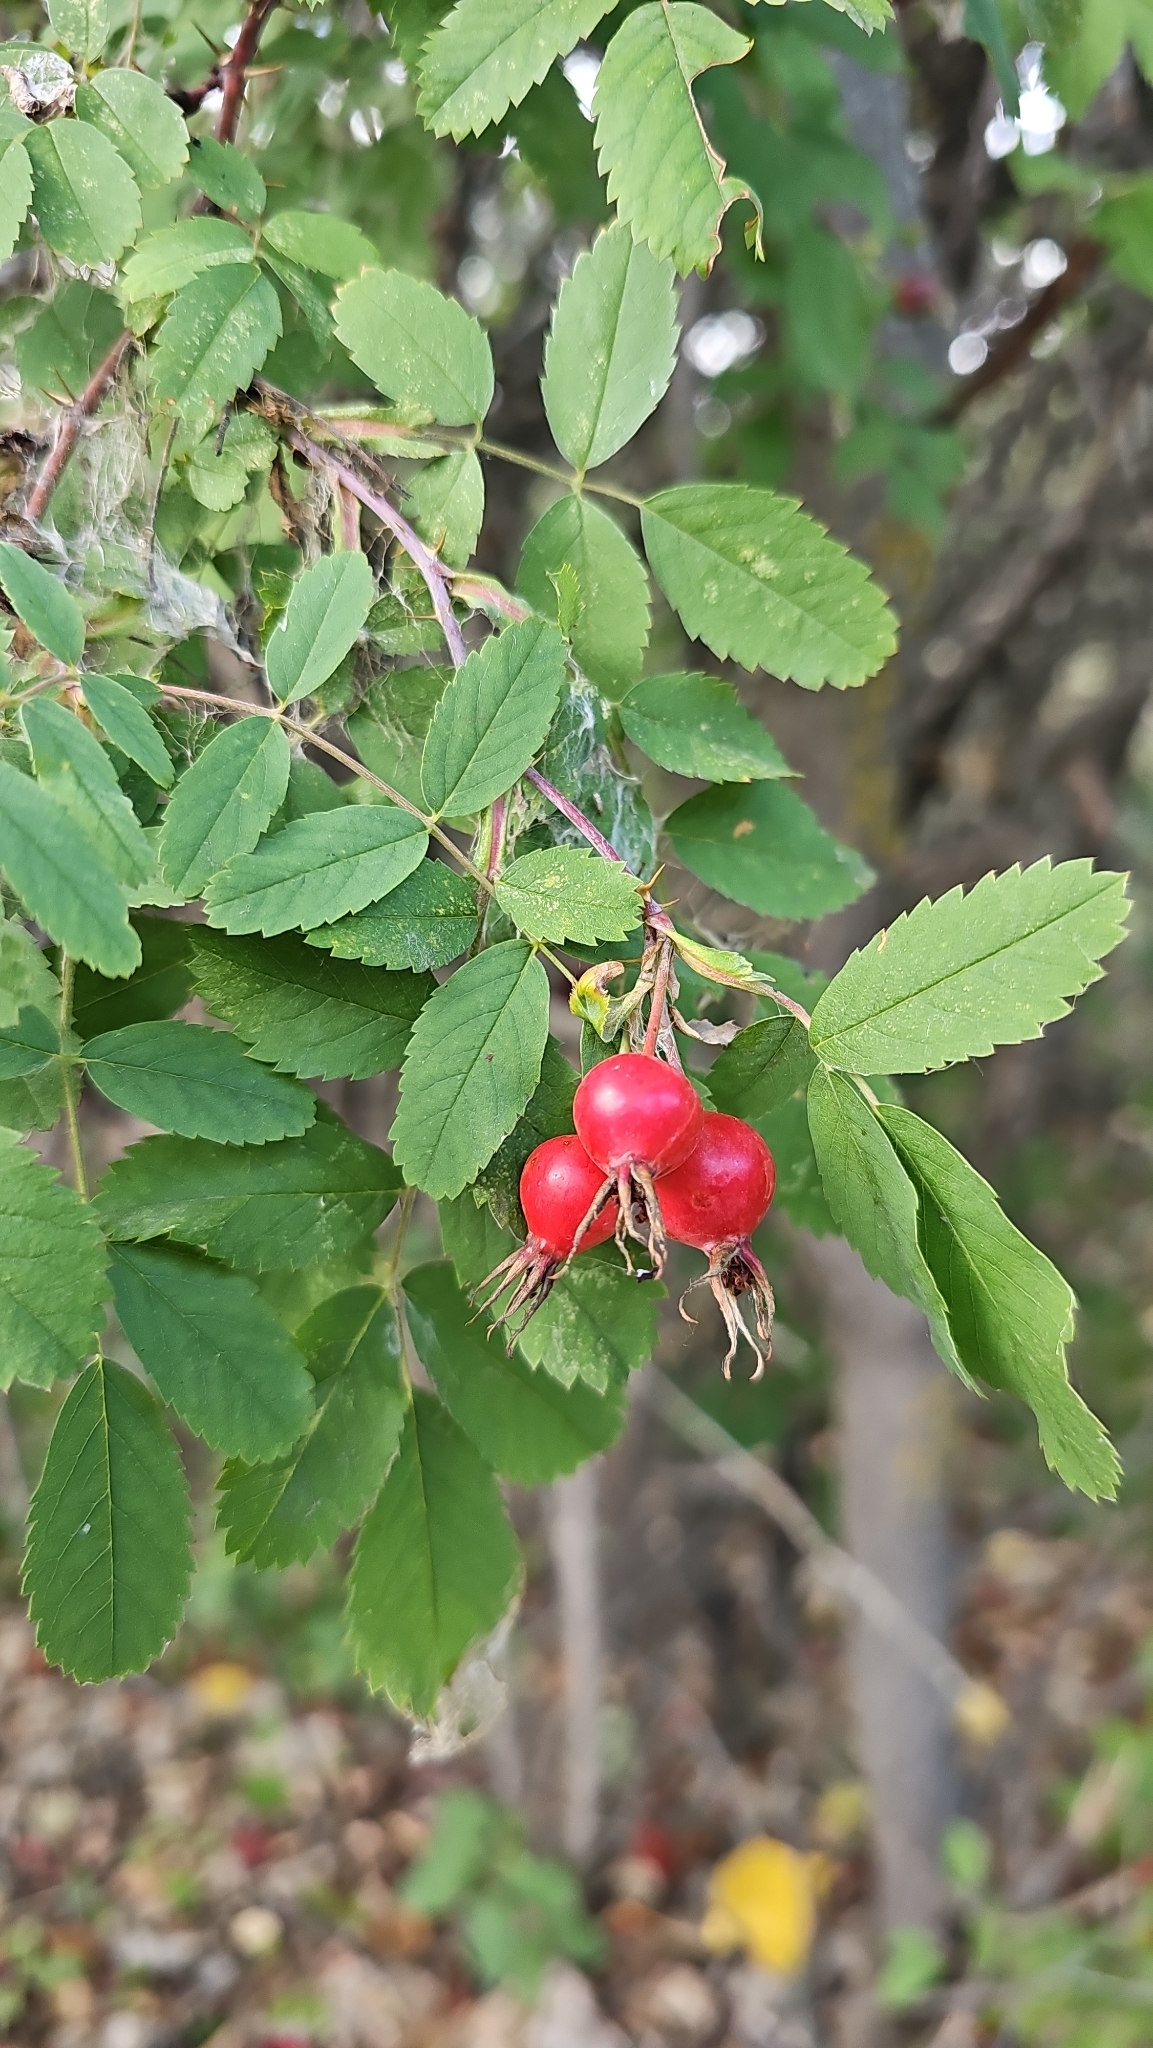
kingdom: Plantae
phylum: Tracheophyta
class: Magnoliopsida
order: Rosales
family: Rosaceae
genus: Rosa
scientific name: Rosa woodsii
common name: Woods's rose
